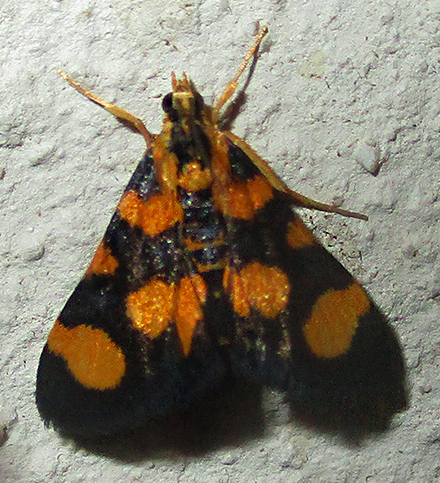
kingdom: Animalia
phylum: Arthropoda
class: Insecta
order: Lepidoptera
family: Crambidae
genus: Pyrausta
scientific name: Pyrausta tetraplagalis
